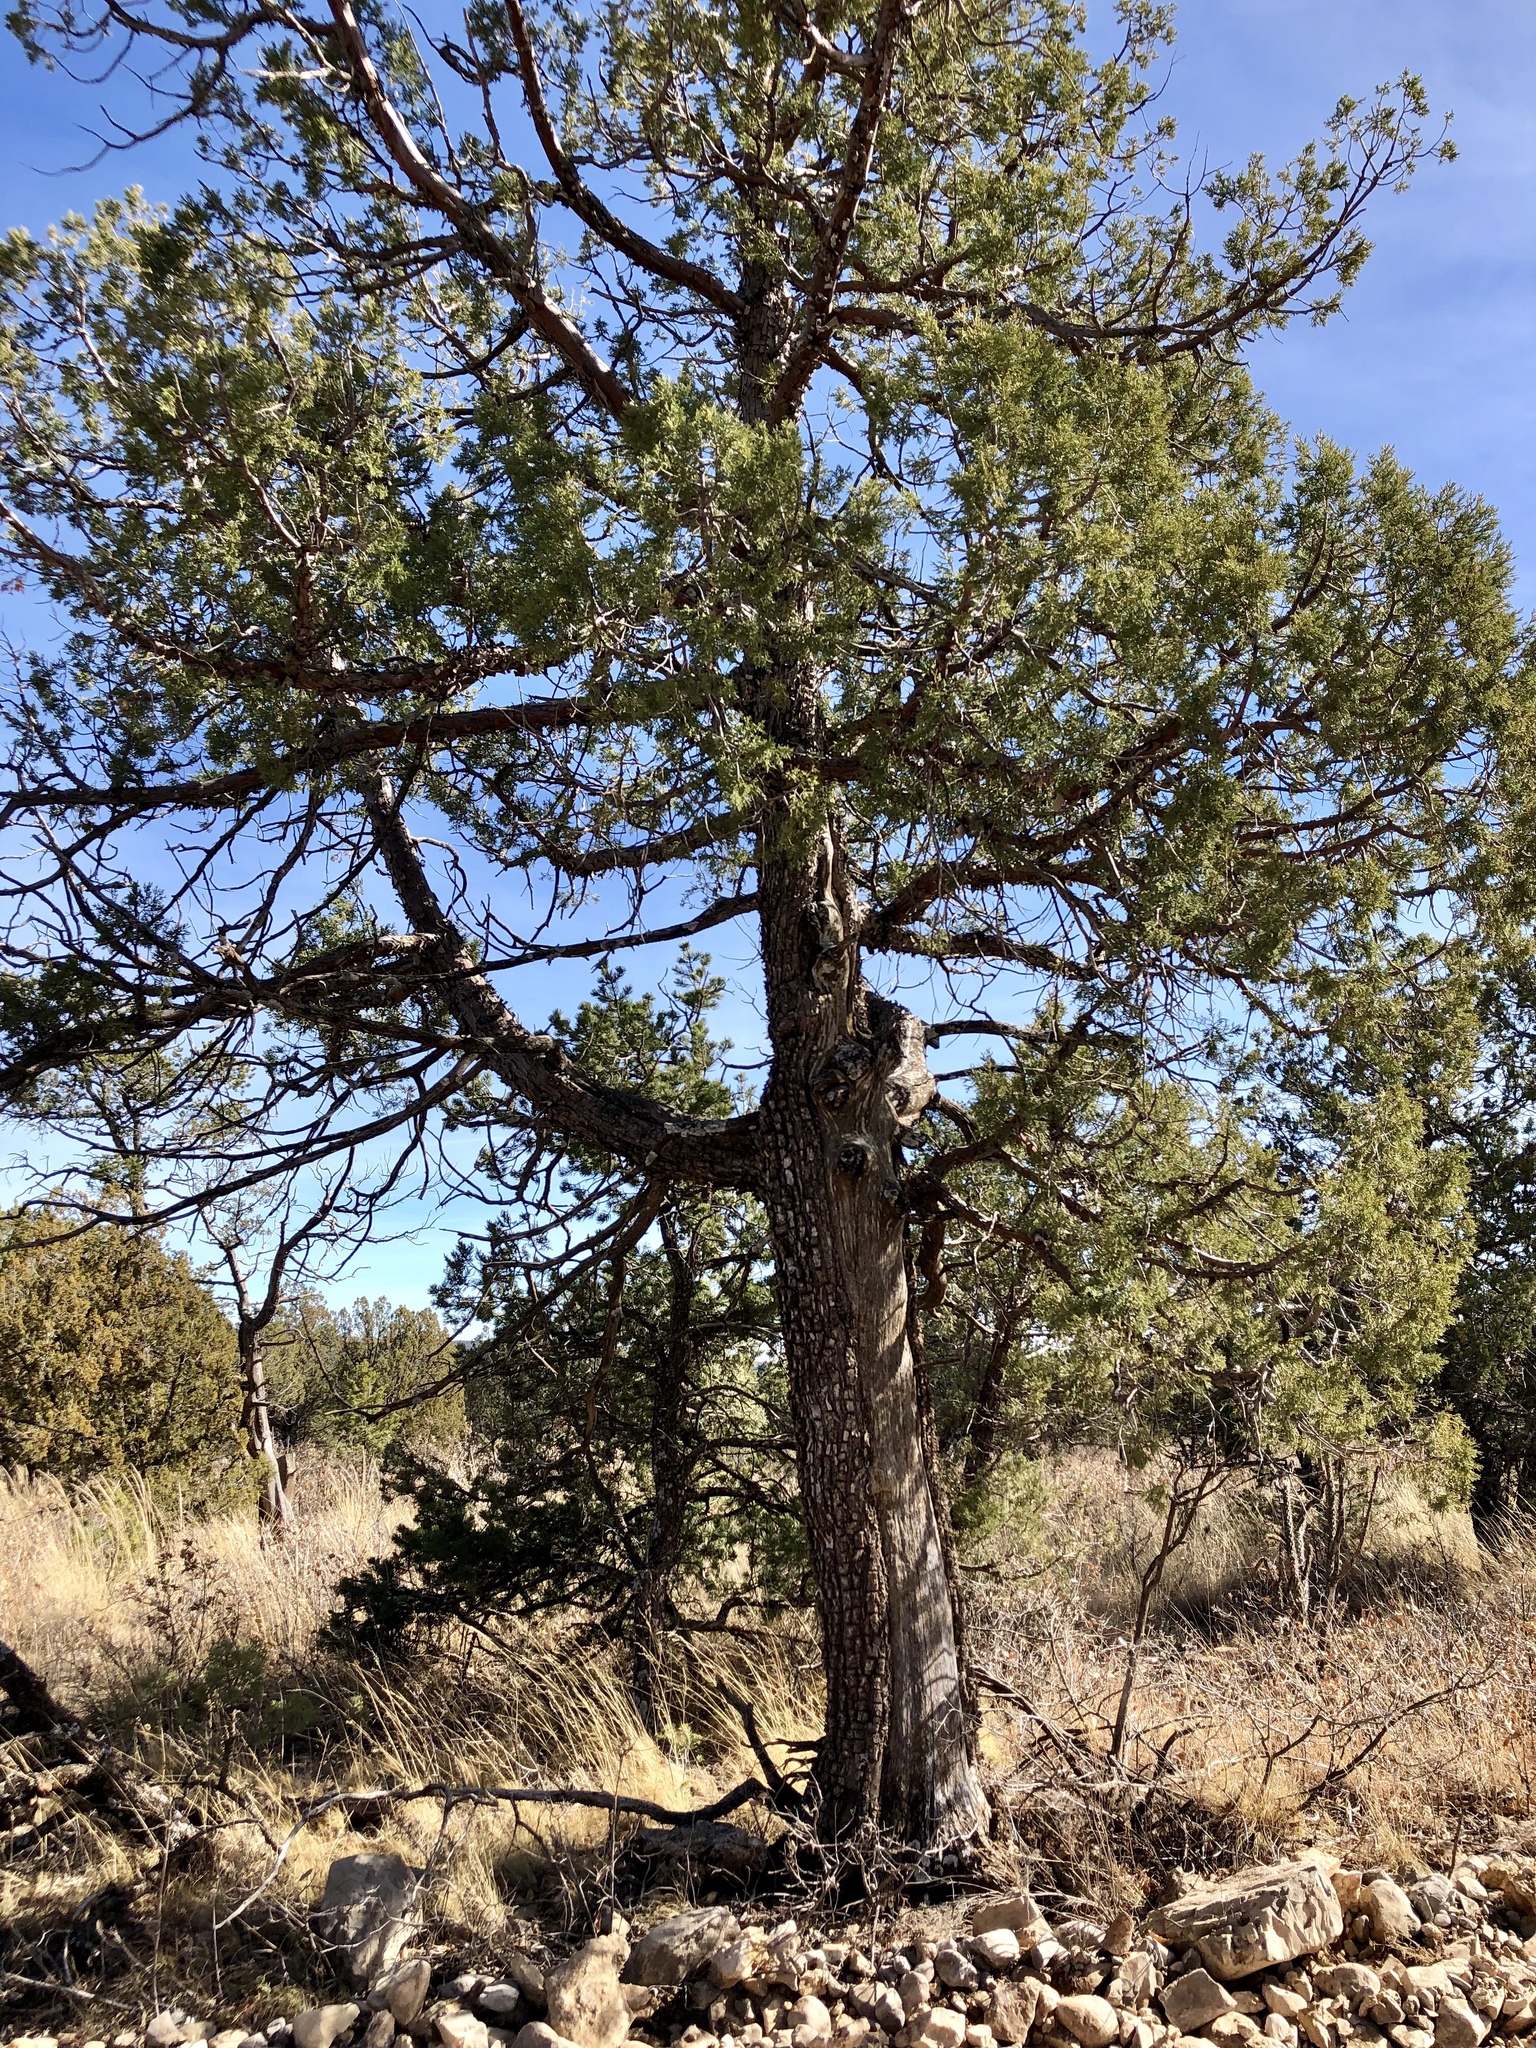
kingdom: Plantae
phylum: Tracheophyta
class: Pinopsida
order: Pinales
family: Cupressaceae
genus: Juniperus
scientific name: Juniperus deppeana
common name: Alligator juniper
